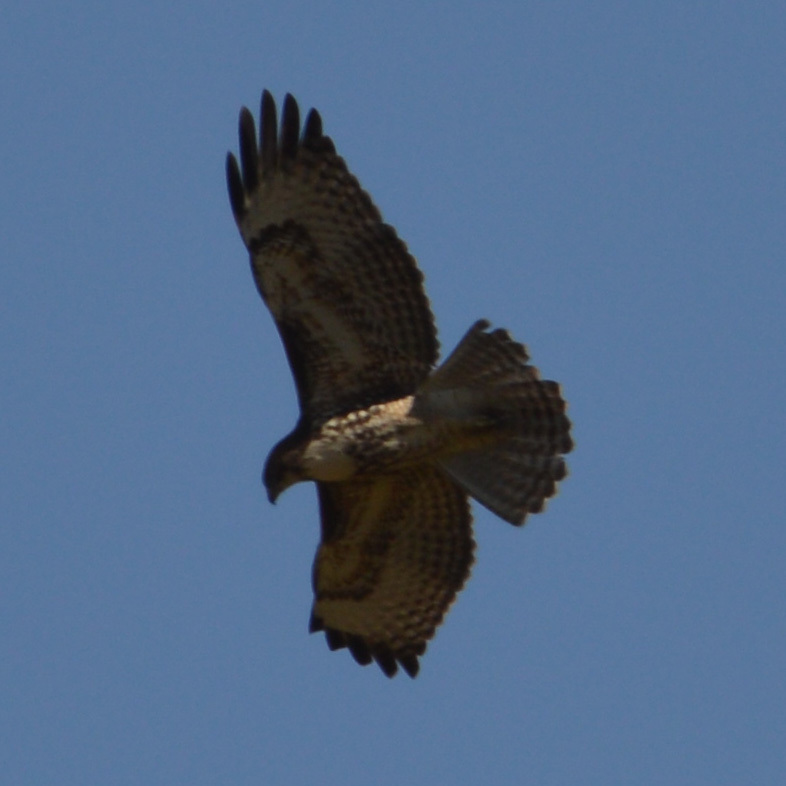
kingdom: Animalia
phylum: Chordata
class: Aves
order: Accipitriformes
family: Accipitridae
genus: Buteo
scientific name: Buteo jamaicensis
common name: Red-tailed hawk
